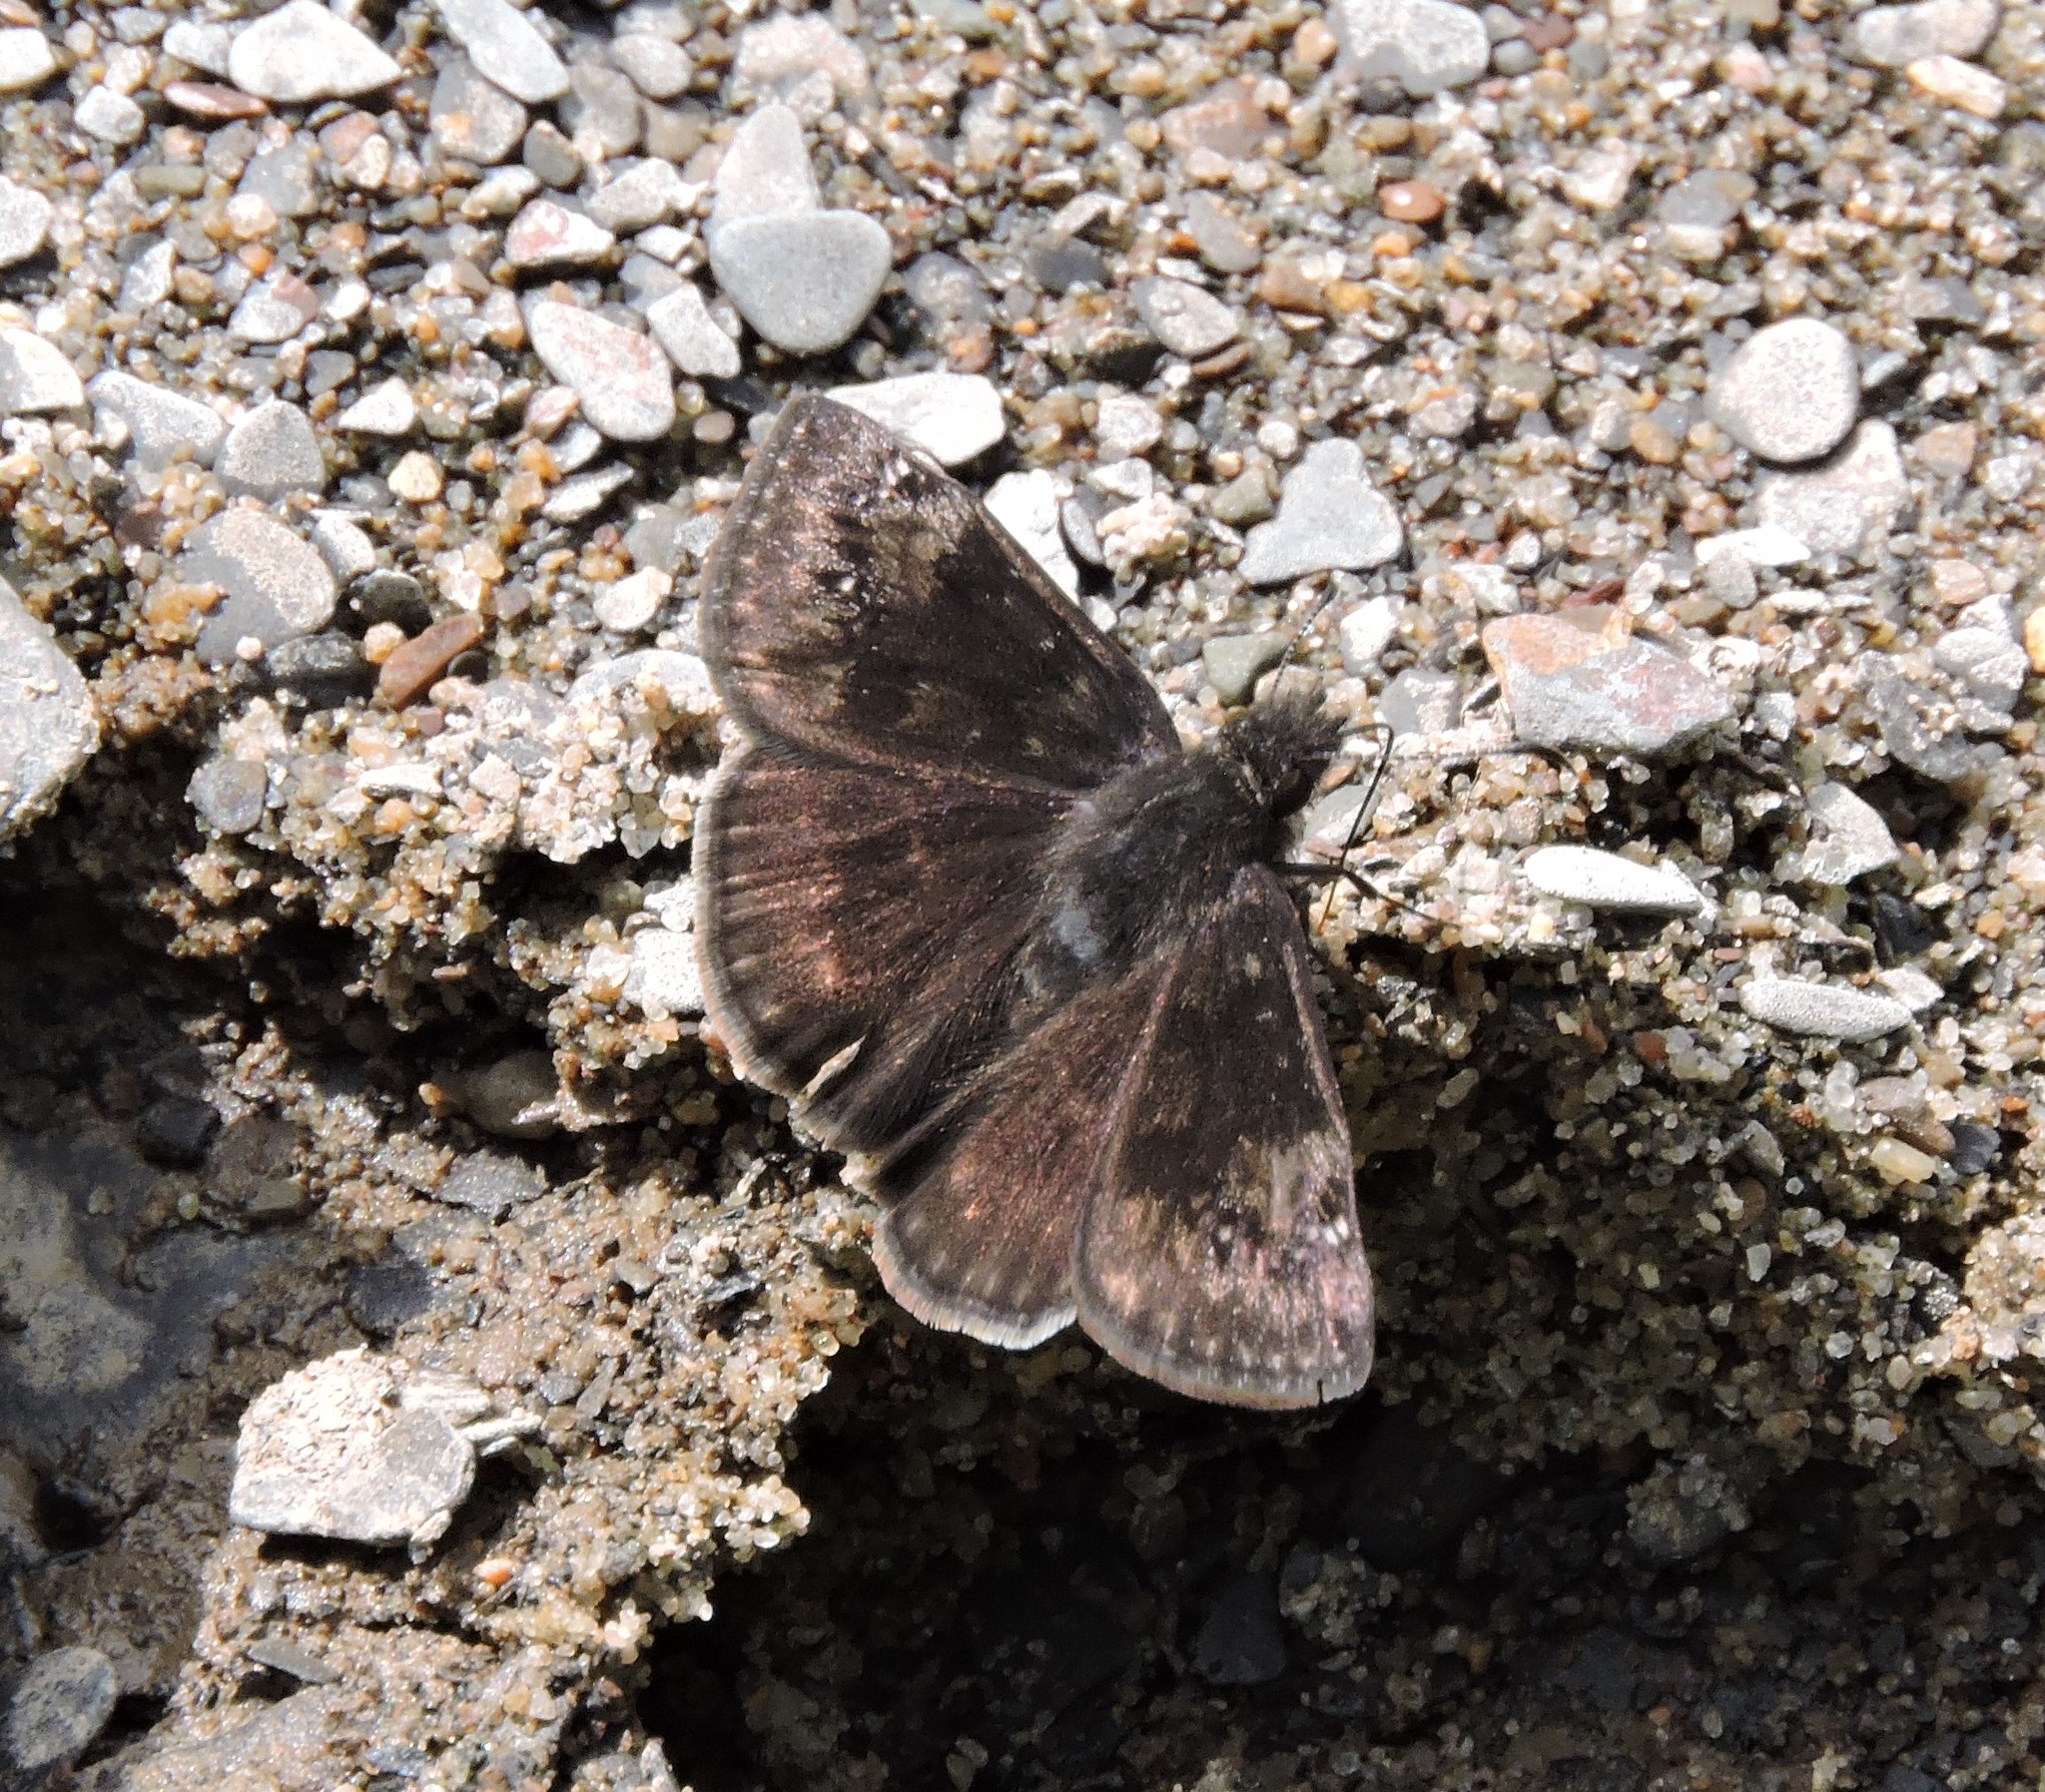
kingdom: Animalia
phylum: Arthropoda
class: Insecta
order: Lepidoptera
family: Hesperiidae
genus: Erynnis
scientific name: Erynnis baptisiae
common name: Wild indigo duskywing
